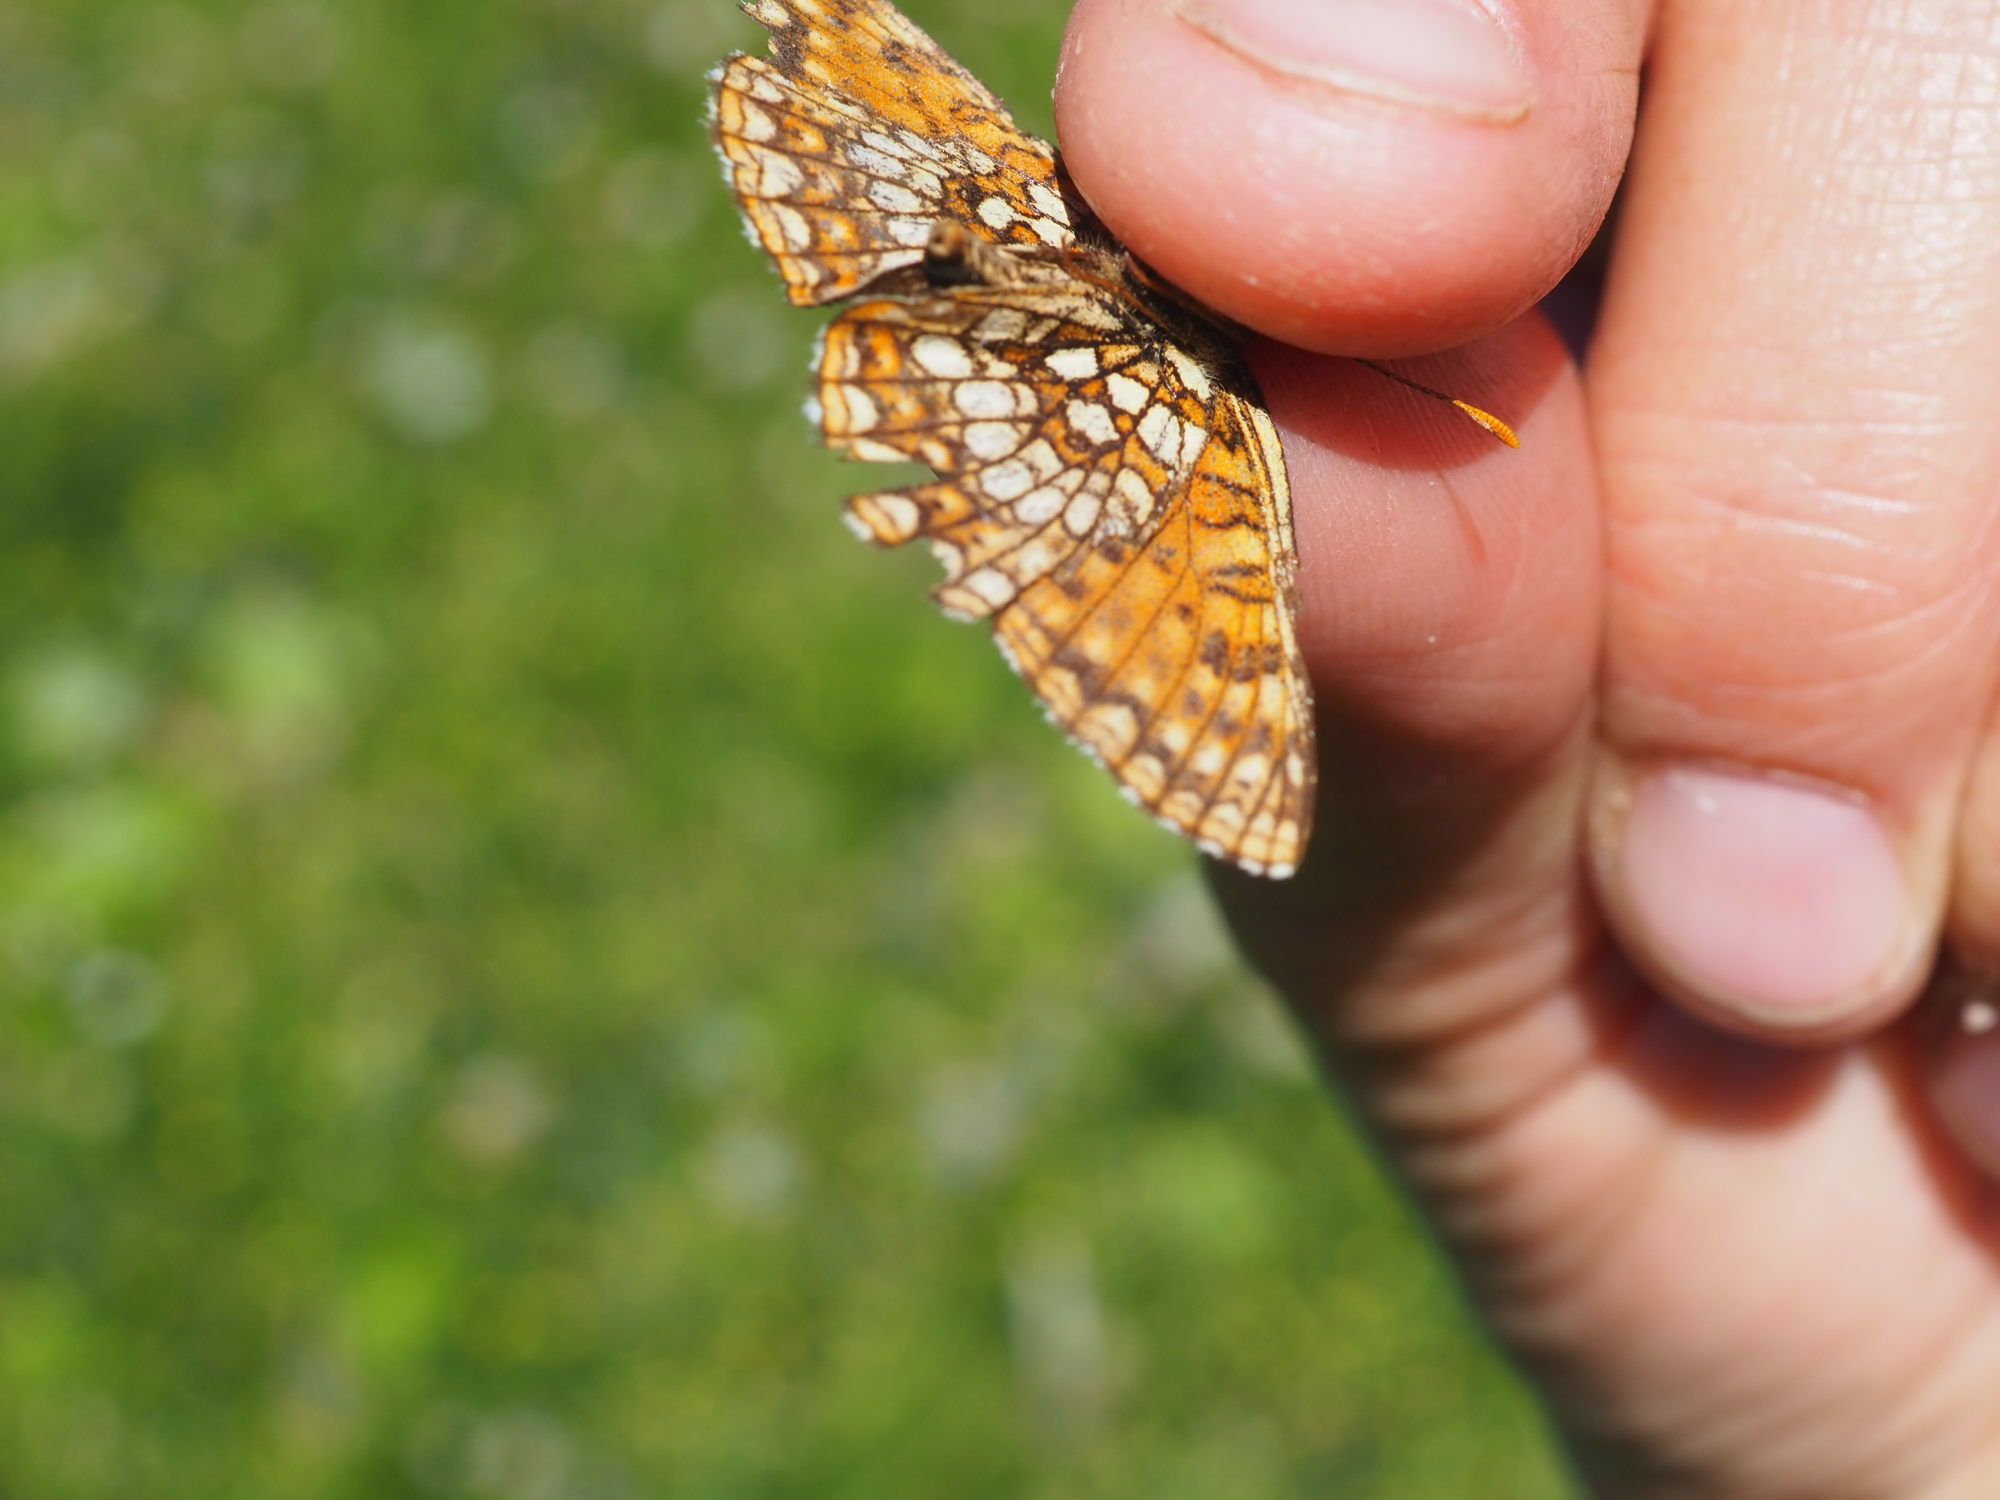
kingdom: Animalia
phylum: Arthropoda
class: Insecta
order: Lepidoptera
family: Nymphalidae
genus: Melitaea
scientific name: Melitaea diamina
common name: False heath fritillary
